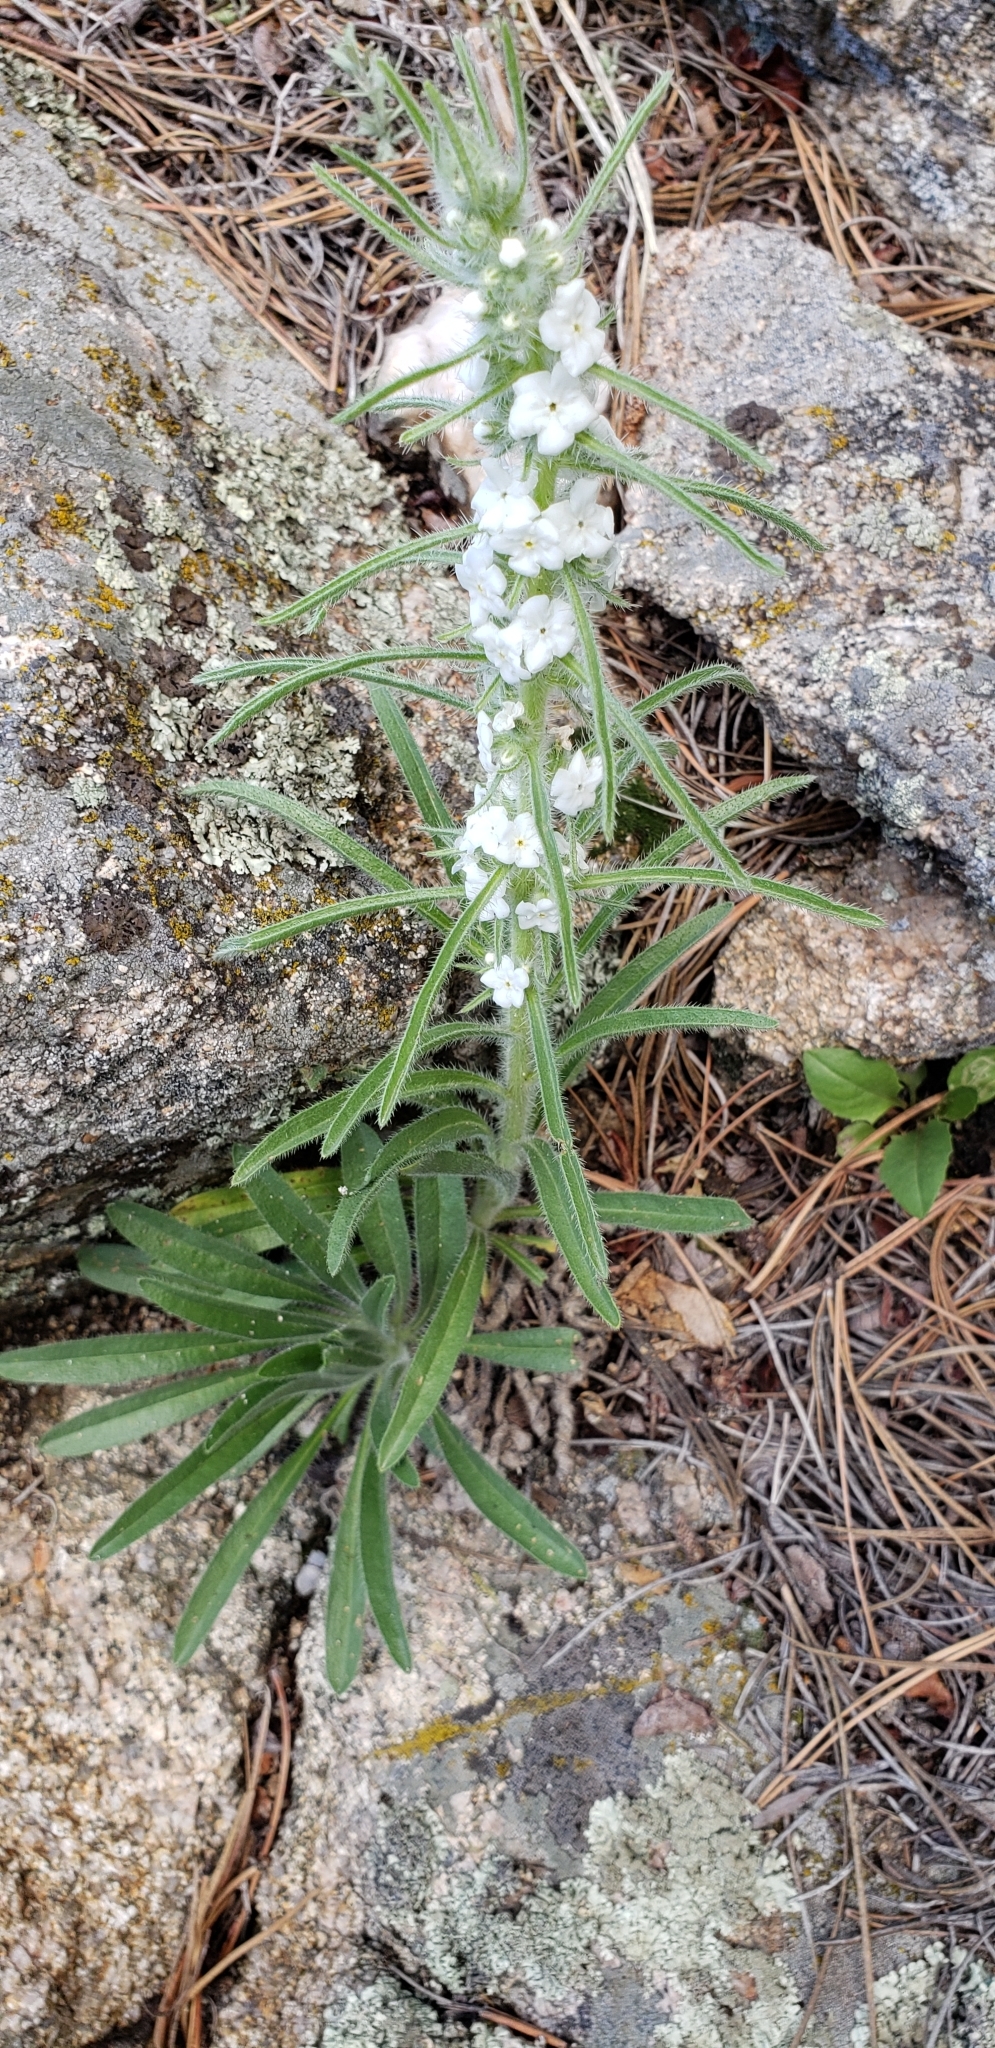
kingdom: Plantae
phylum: Tracheophyta
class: Magnoliopsida
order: Boraginales
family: Boraginaceae
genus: Oreocarya
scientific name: Oreocarya virgata
